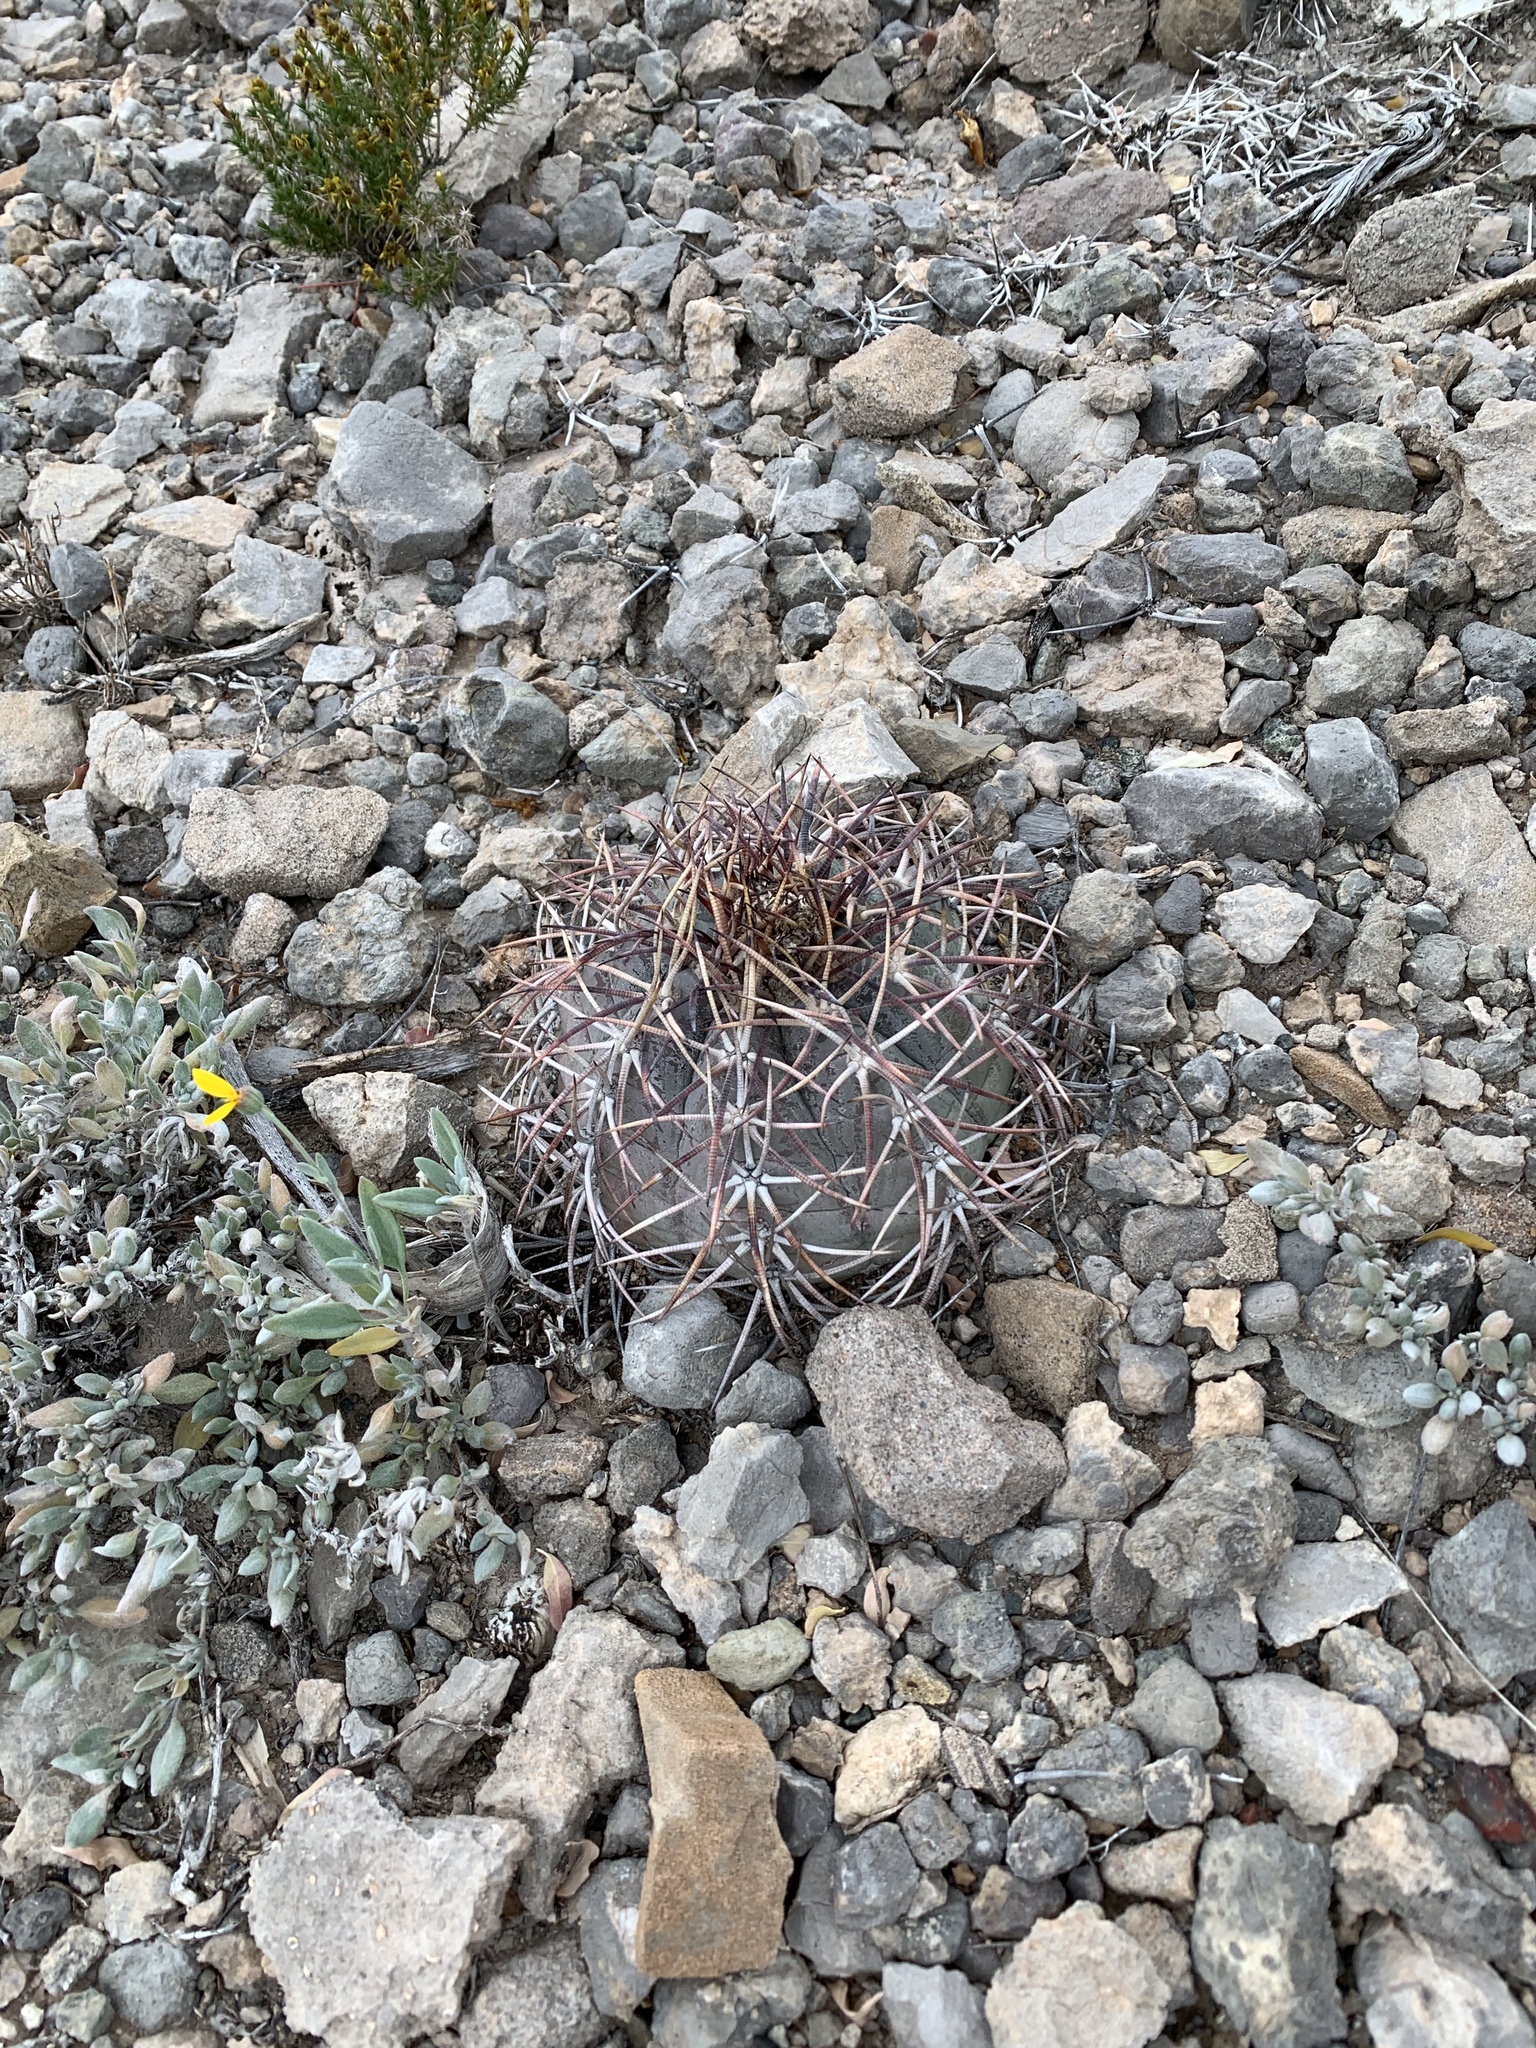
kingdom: Plantae
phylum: Tracheophyta
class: Magnoliopsida
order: Caryophyllales
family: Cactaceae
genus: Echinocactus
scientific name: Echinocactus horizonthalonius
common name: Devilshead
